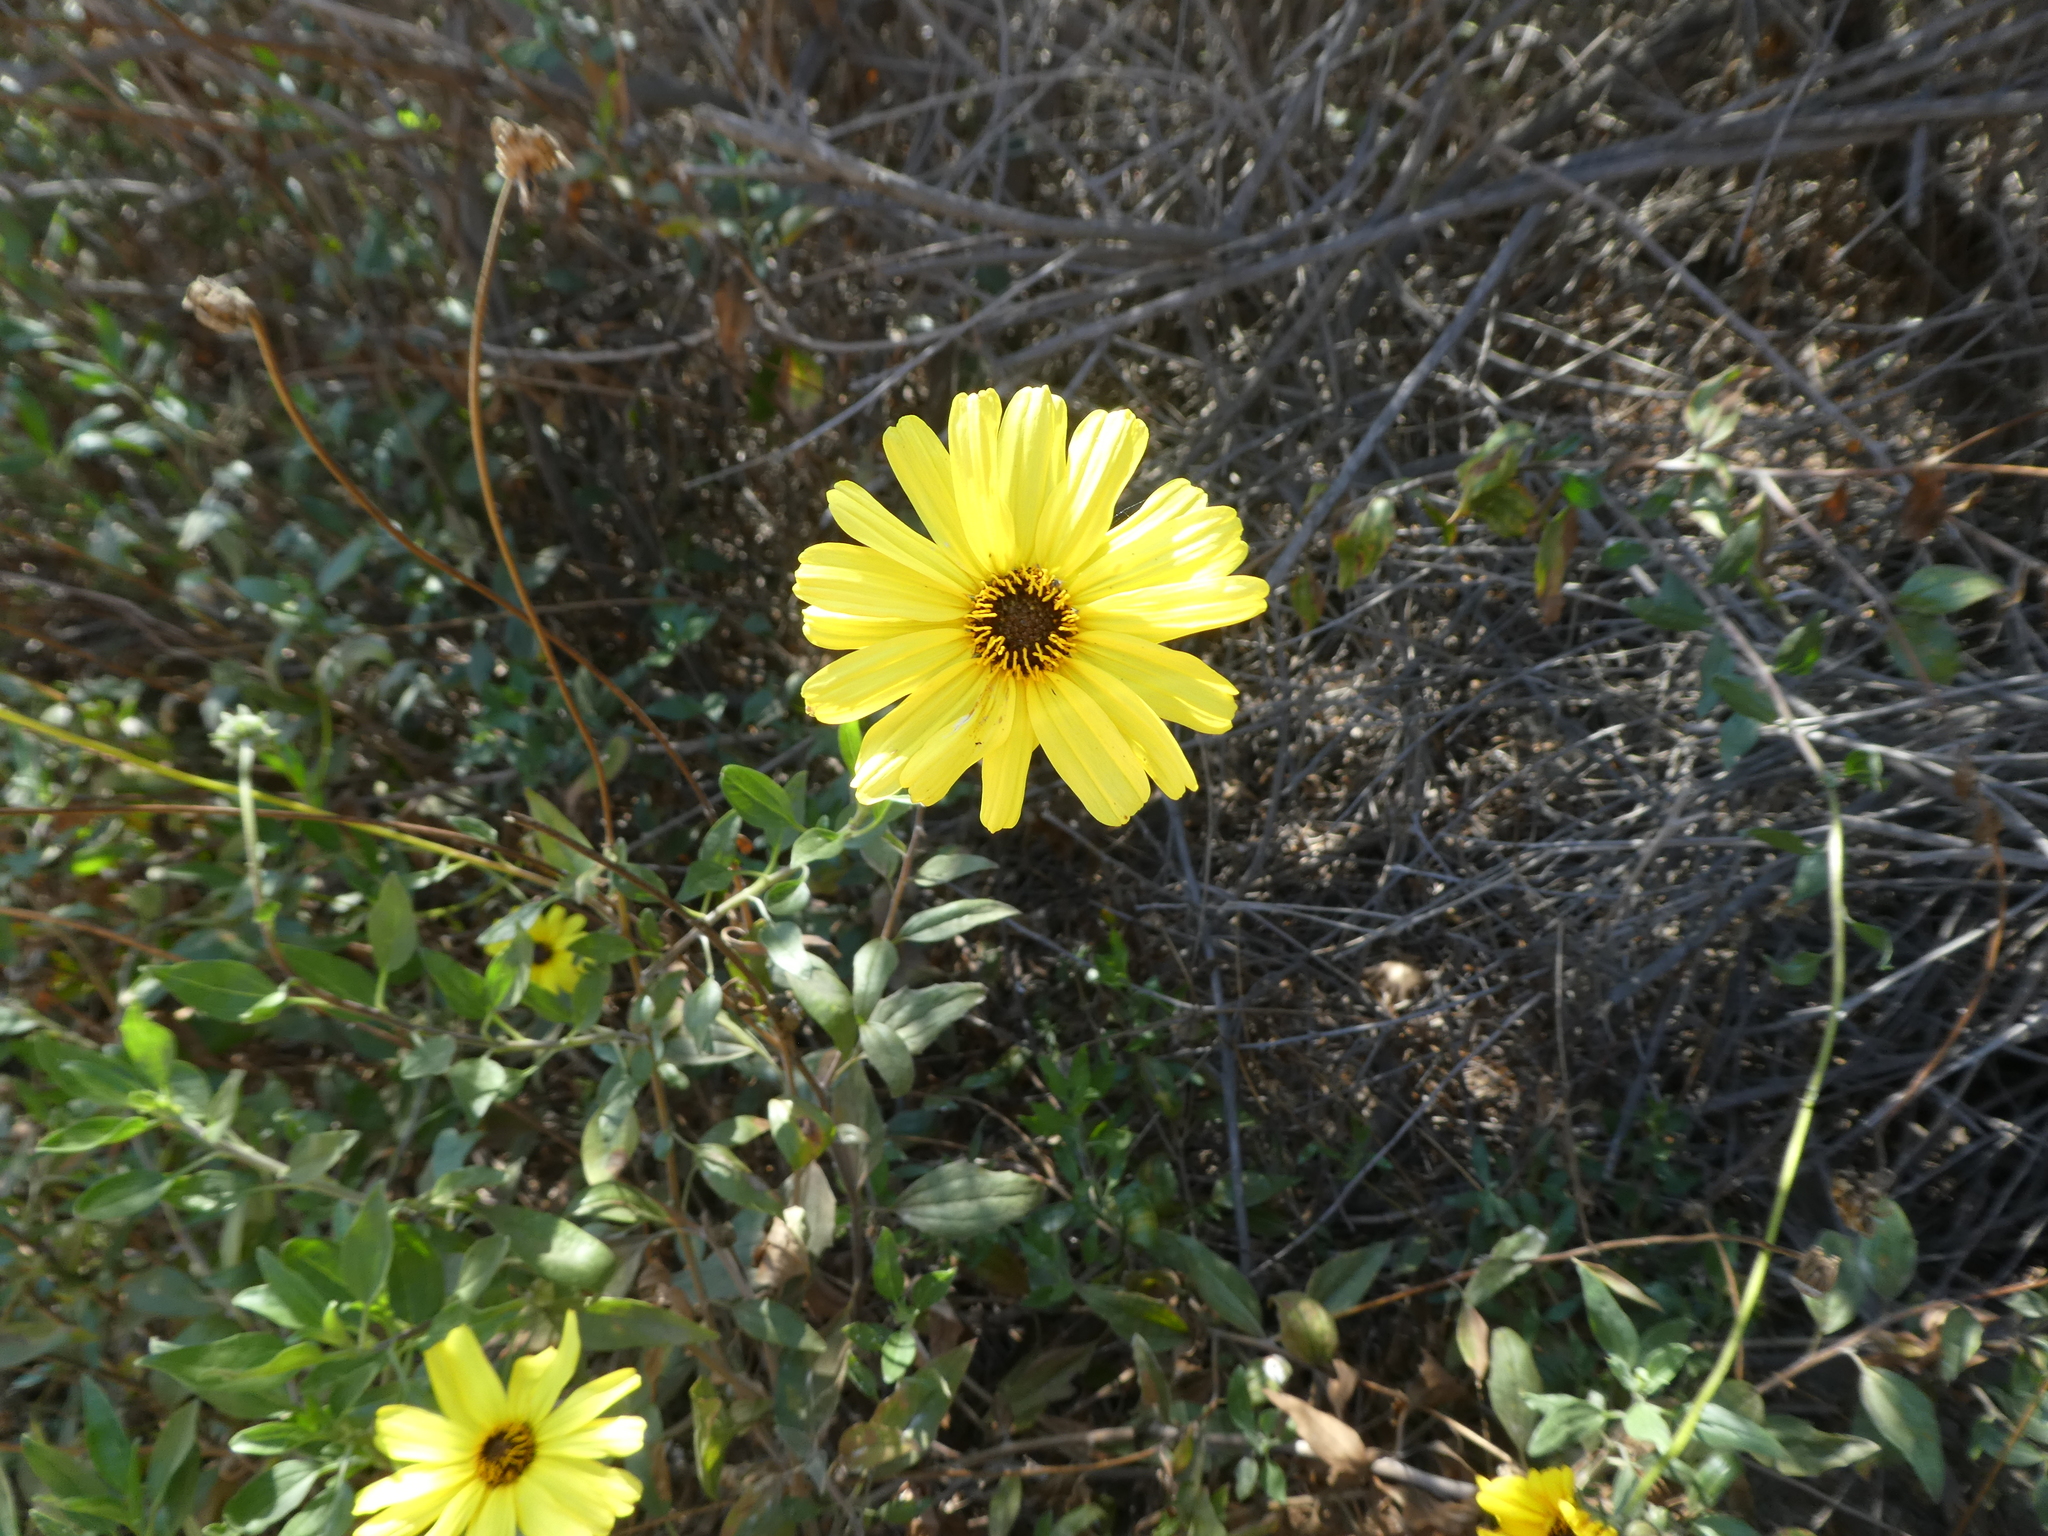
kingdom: Plantae
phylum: Tracheophyta
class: Magnoliopsida
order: Asterales
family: Asteraceae
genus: Encelia
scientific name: Encelia californica
